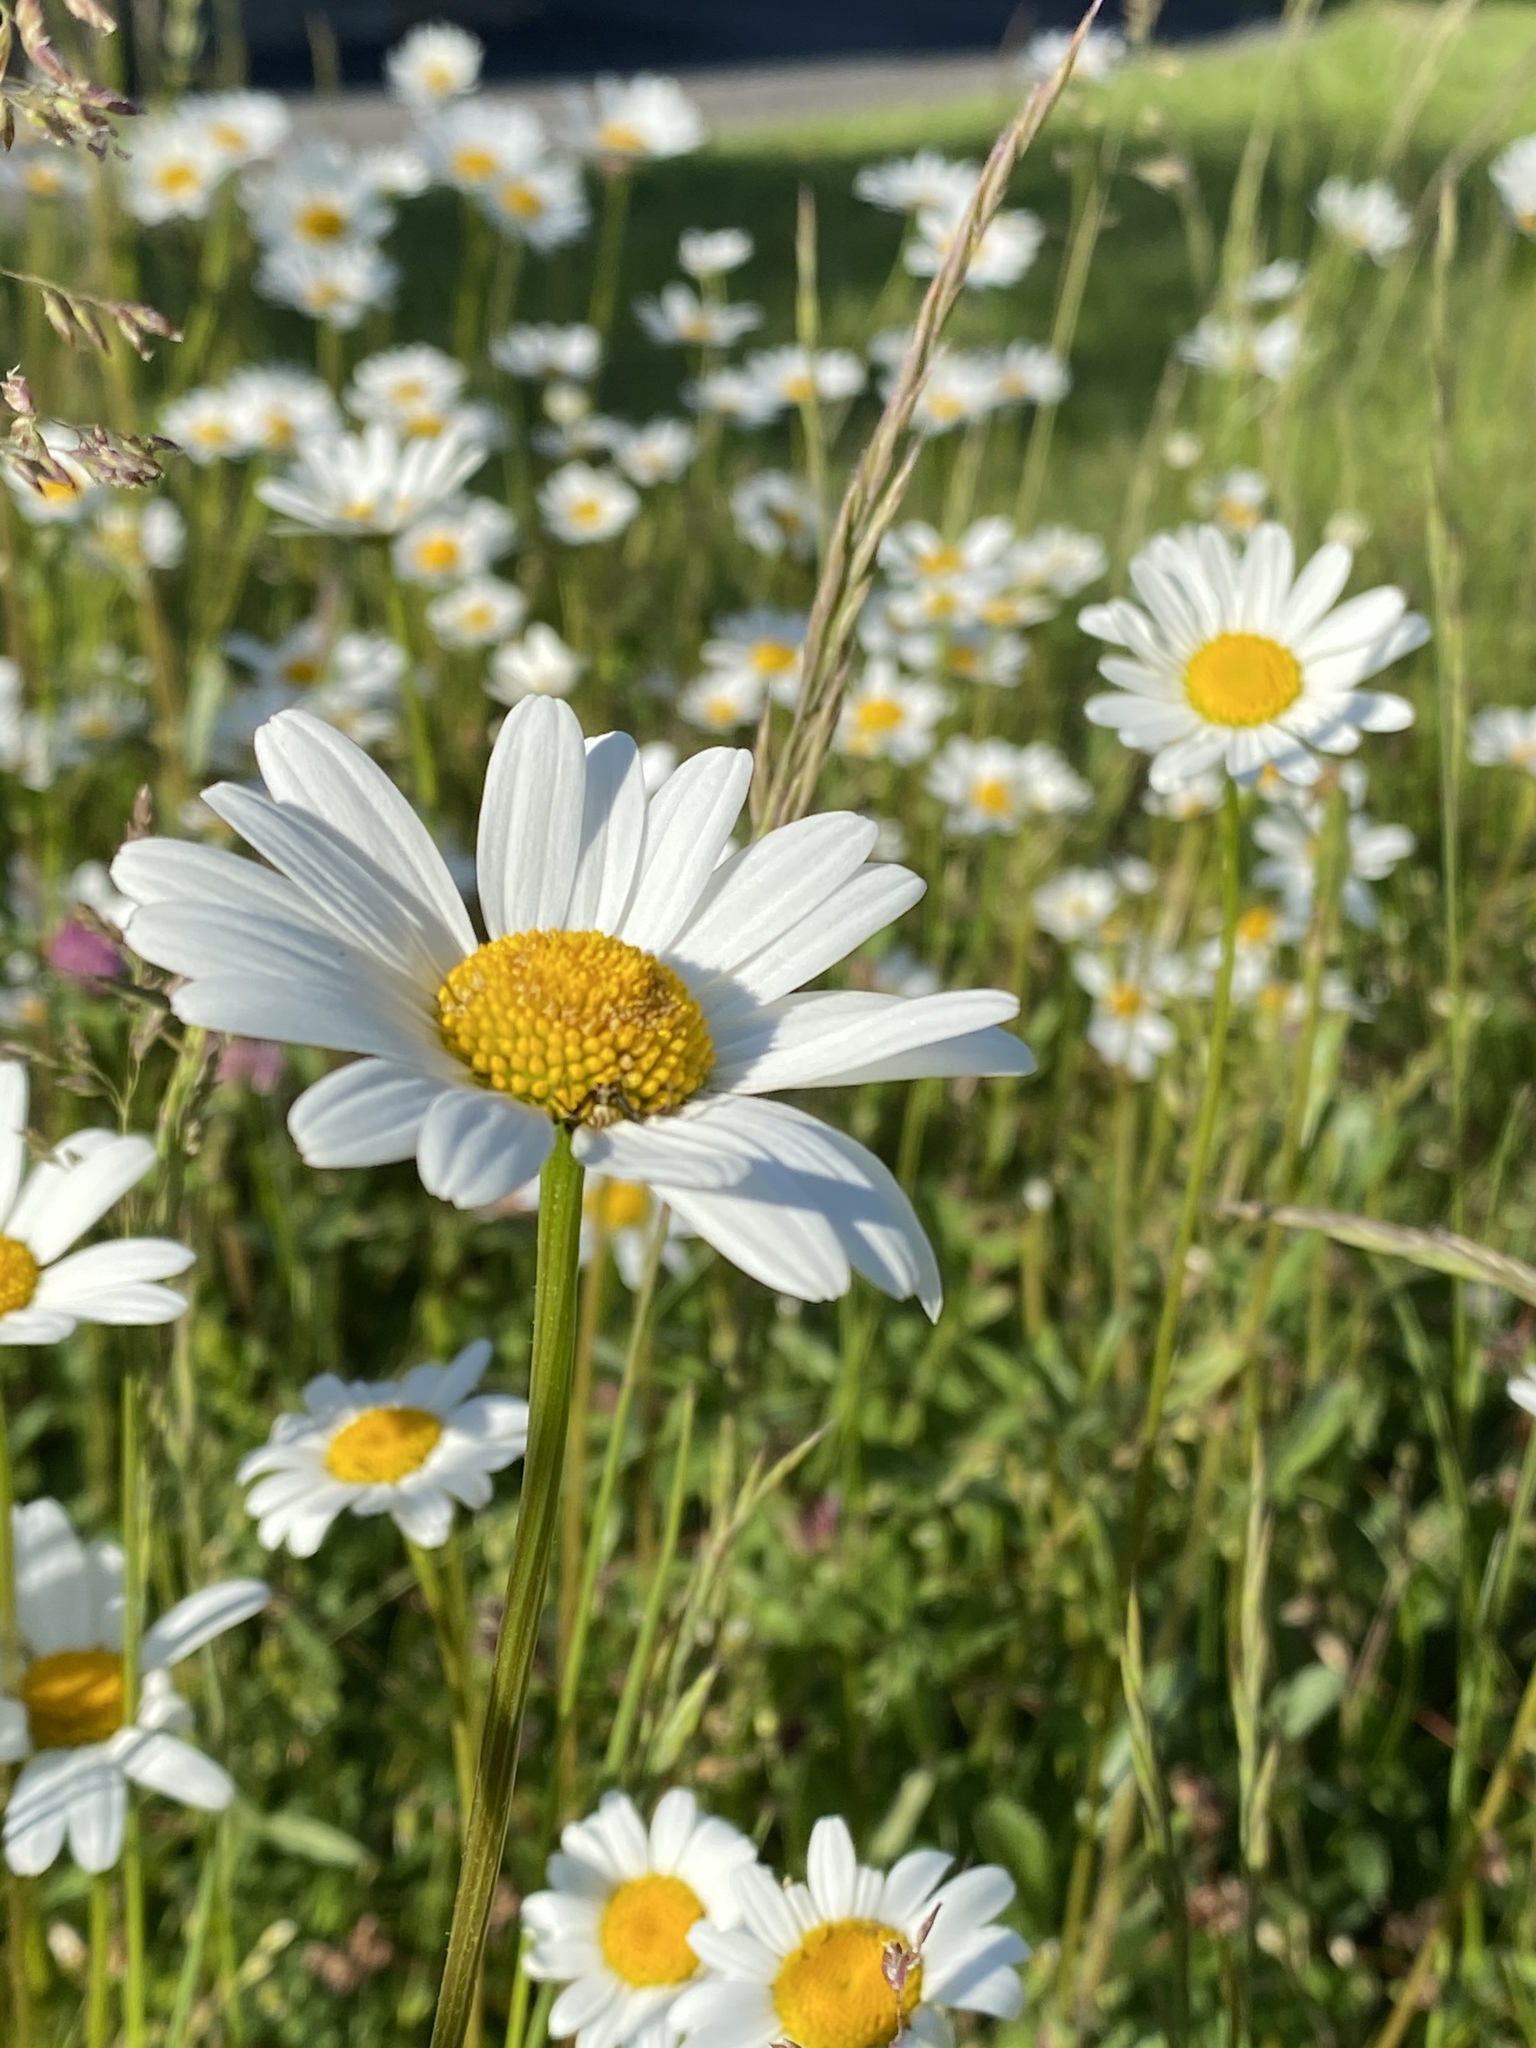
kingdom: Plantae
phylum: Tracheophyta
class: Magnoliopsida
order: Asterales
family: Asteraceae
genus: Leucanthemum
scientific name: Leucanthemum vulgare
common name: Oxeye daisy
